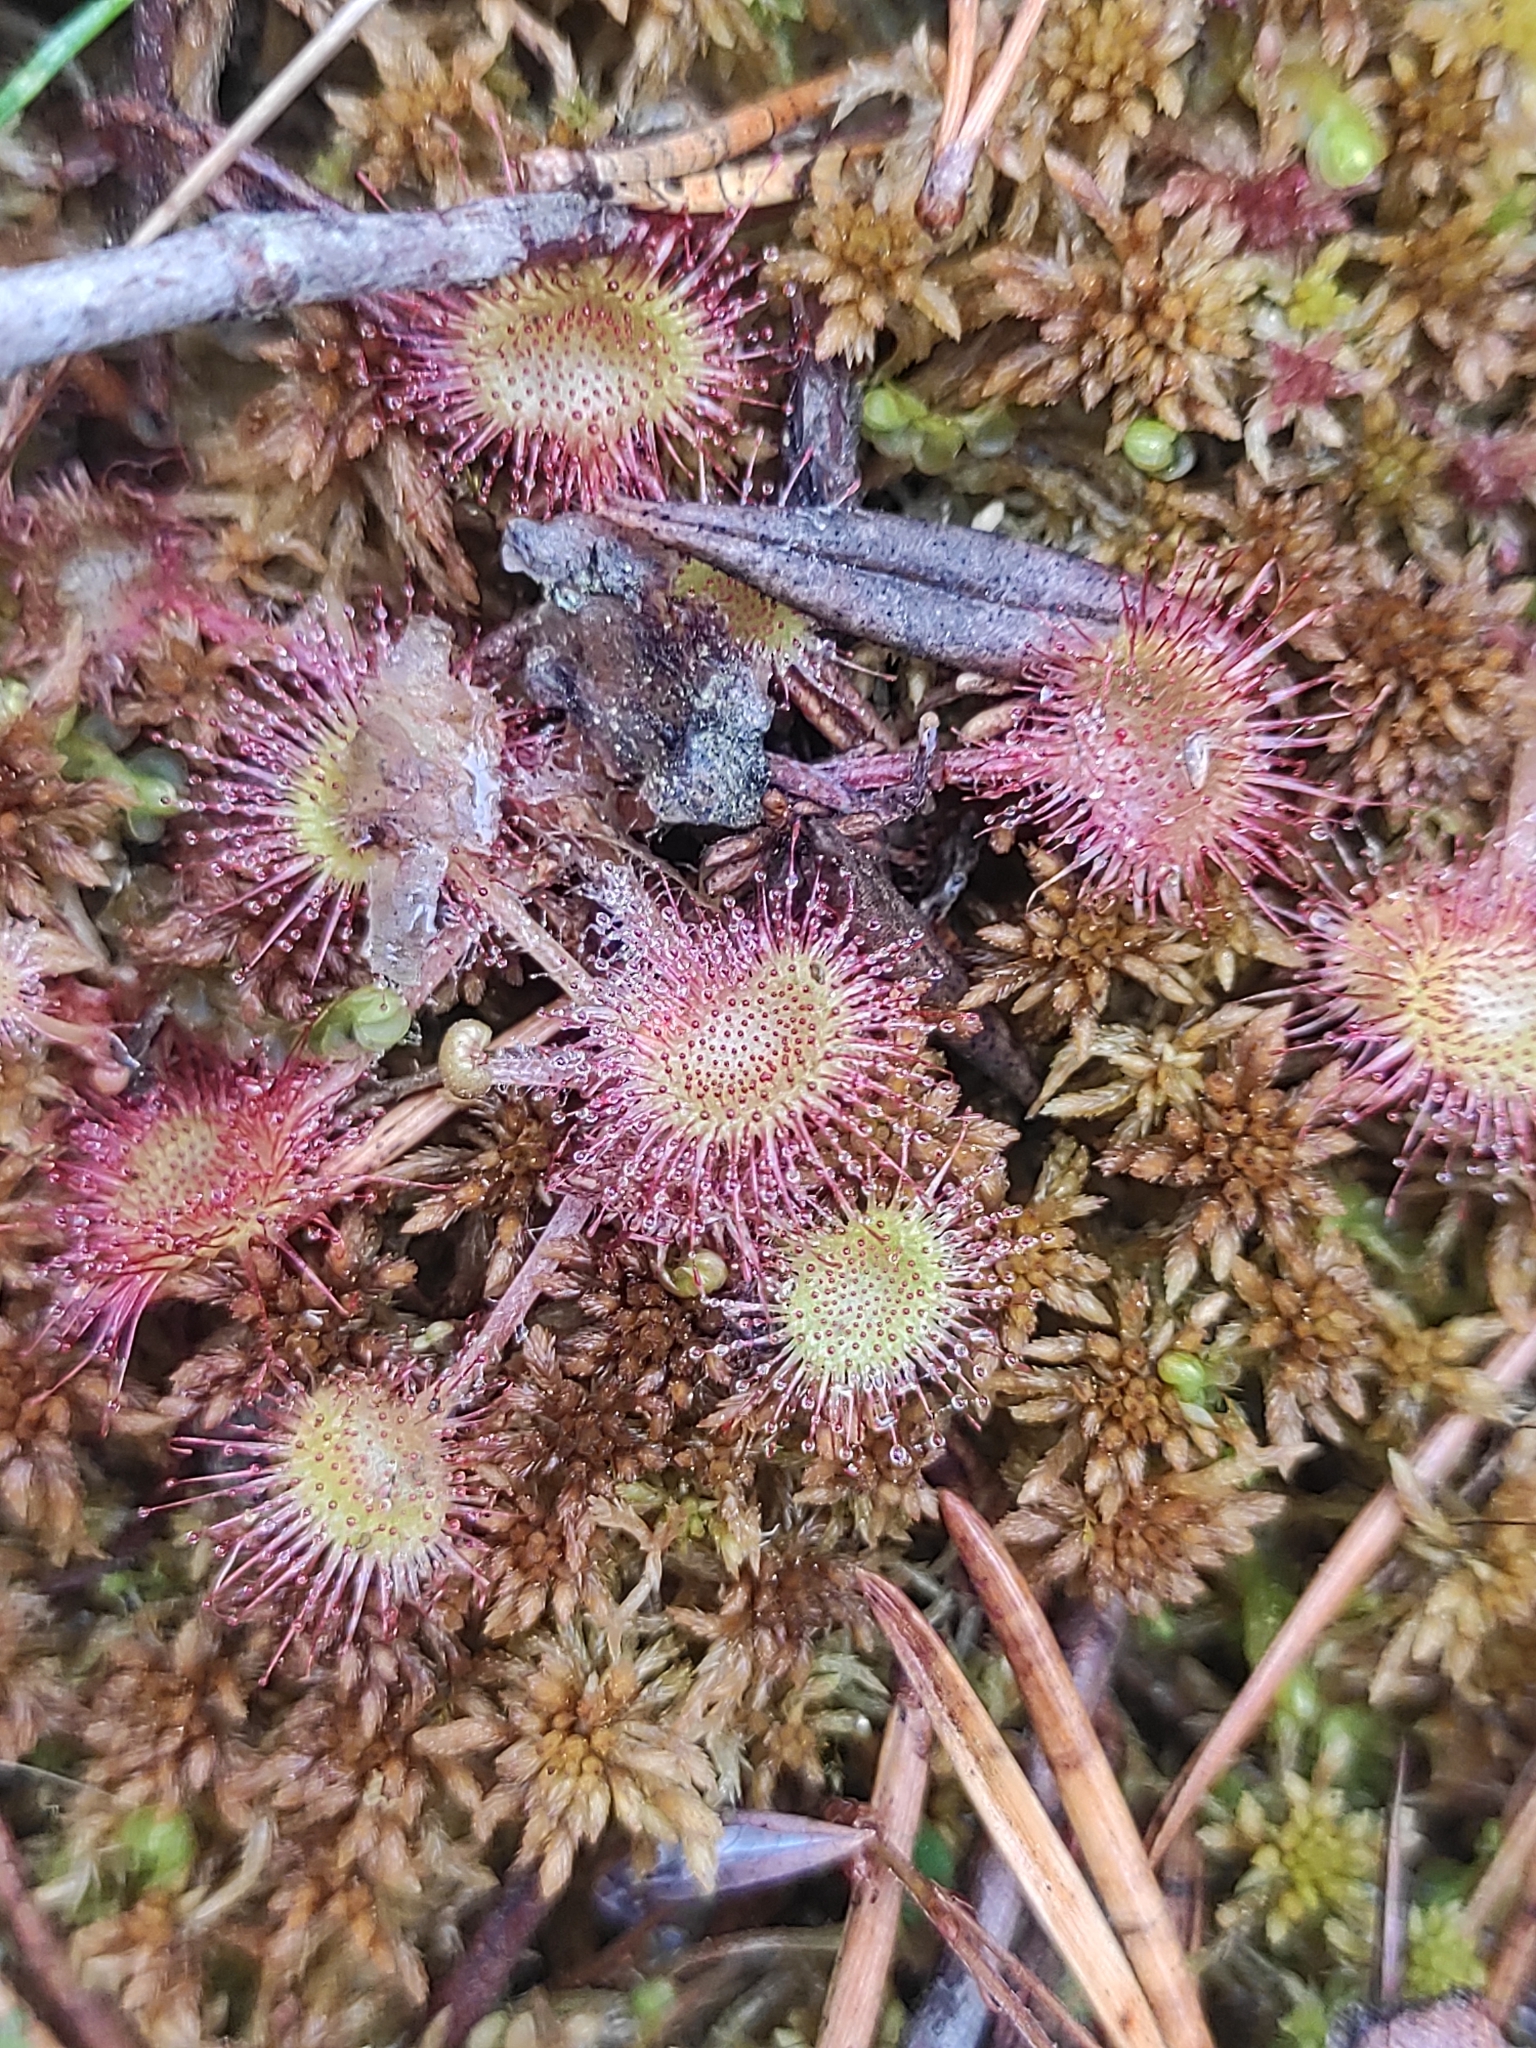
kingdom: Plantae
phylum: Tracheophyta
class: Magnoliopsida
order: Caryophyllales
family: Droseraceae
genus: Drosera
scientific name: Drosera rotundifolia
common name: Round-leaved sundew
